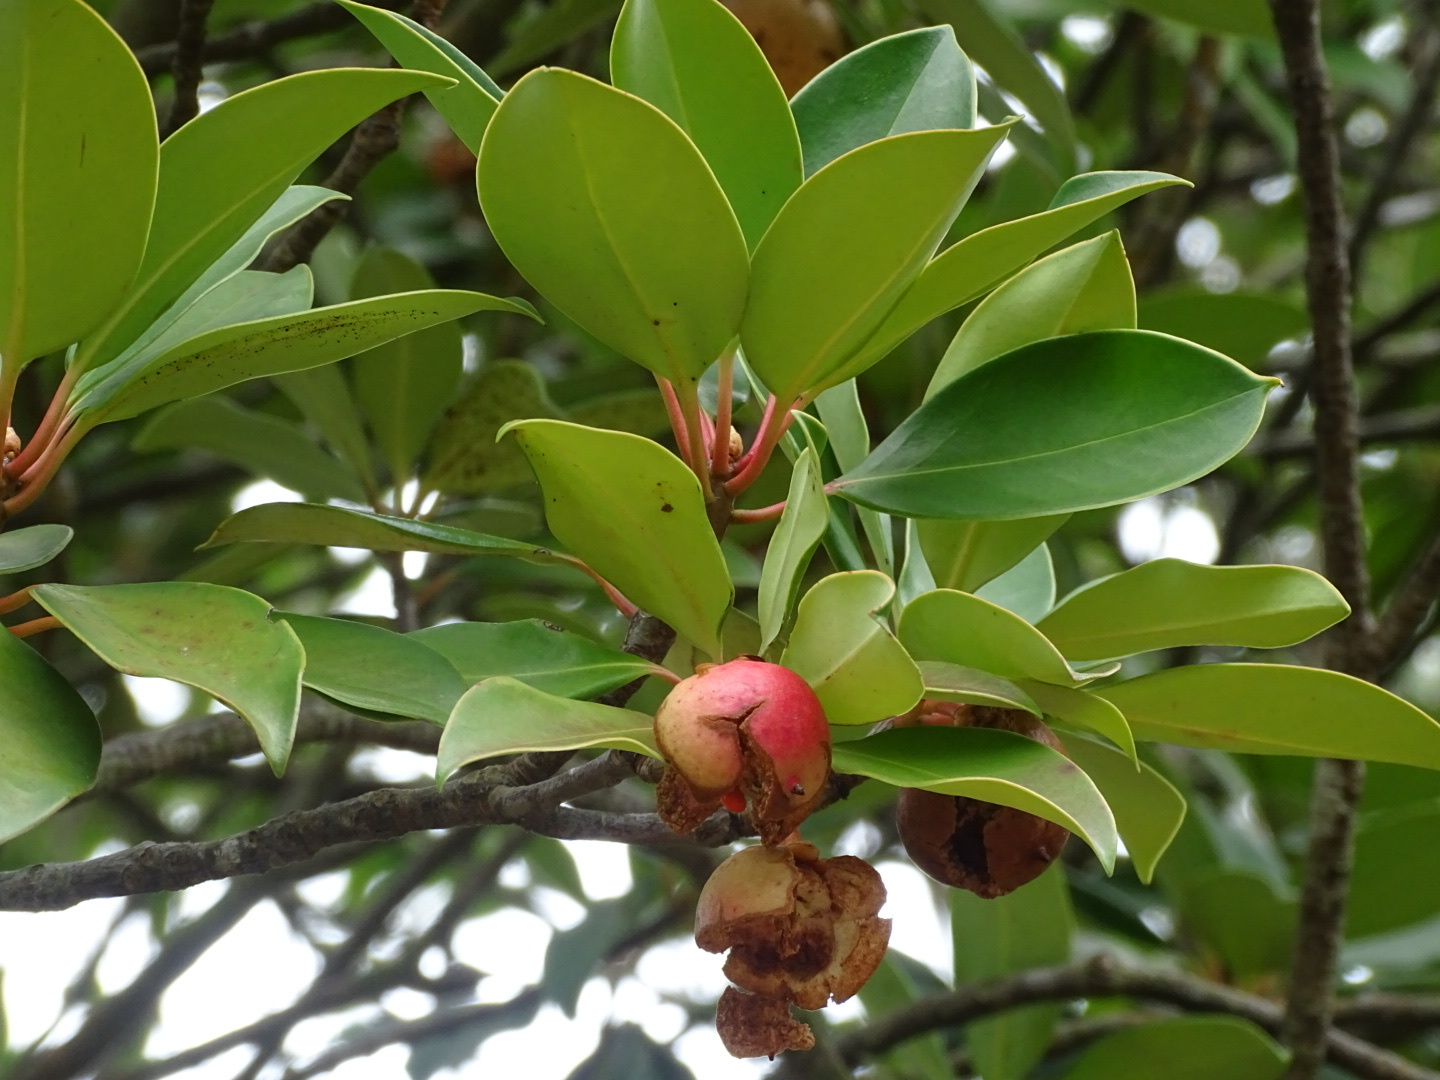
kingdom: Plantae
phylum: Tracheophyta
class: Magnoliopsida
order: Ericales
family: Pentaphylacaceae
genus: Ternstroemia
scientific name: Ternstroemia luteoflora
